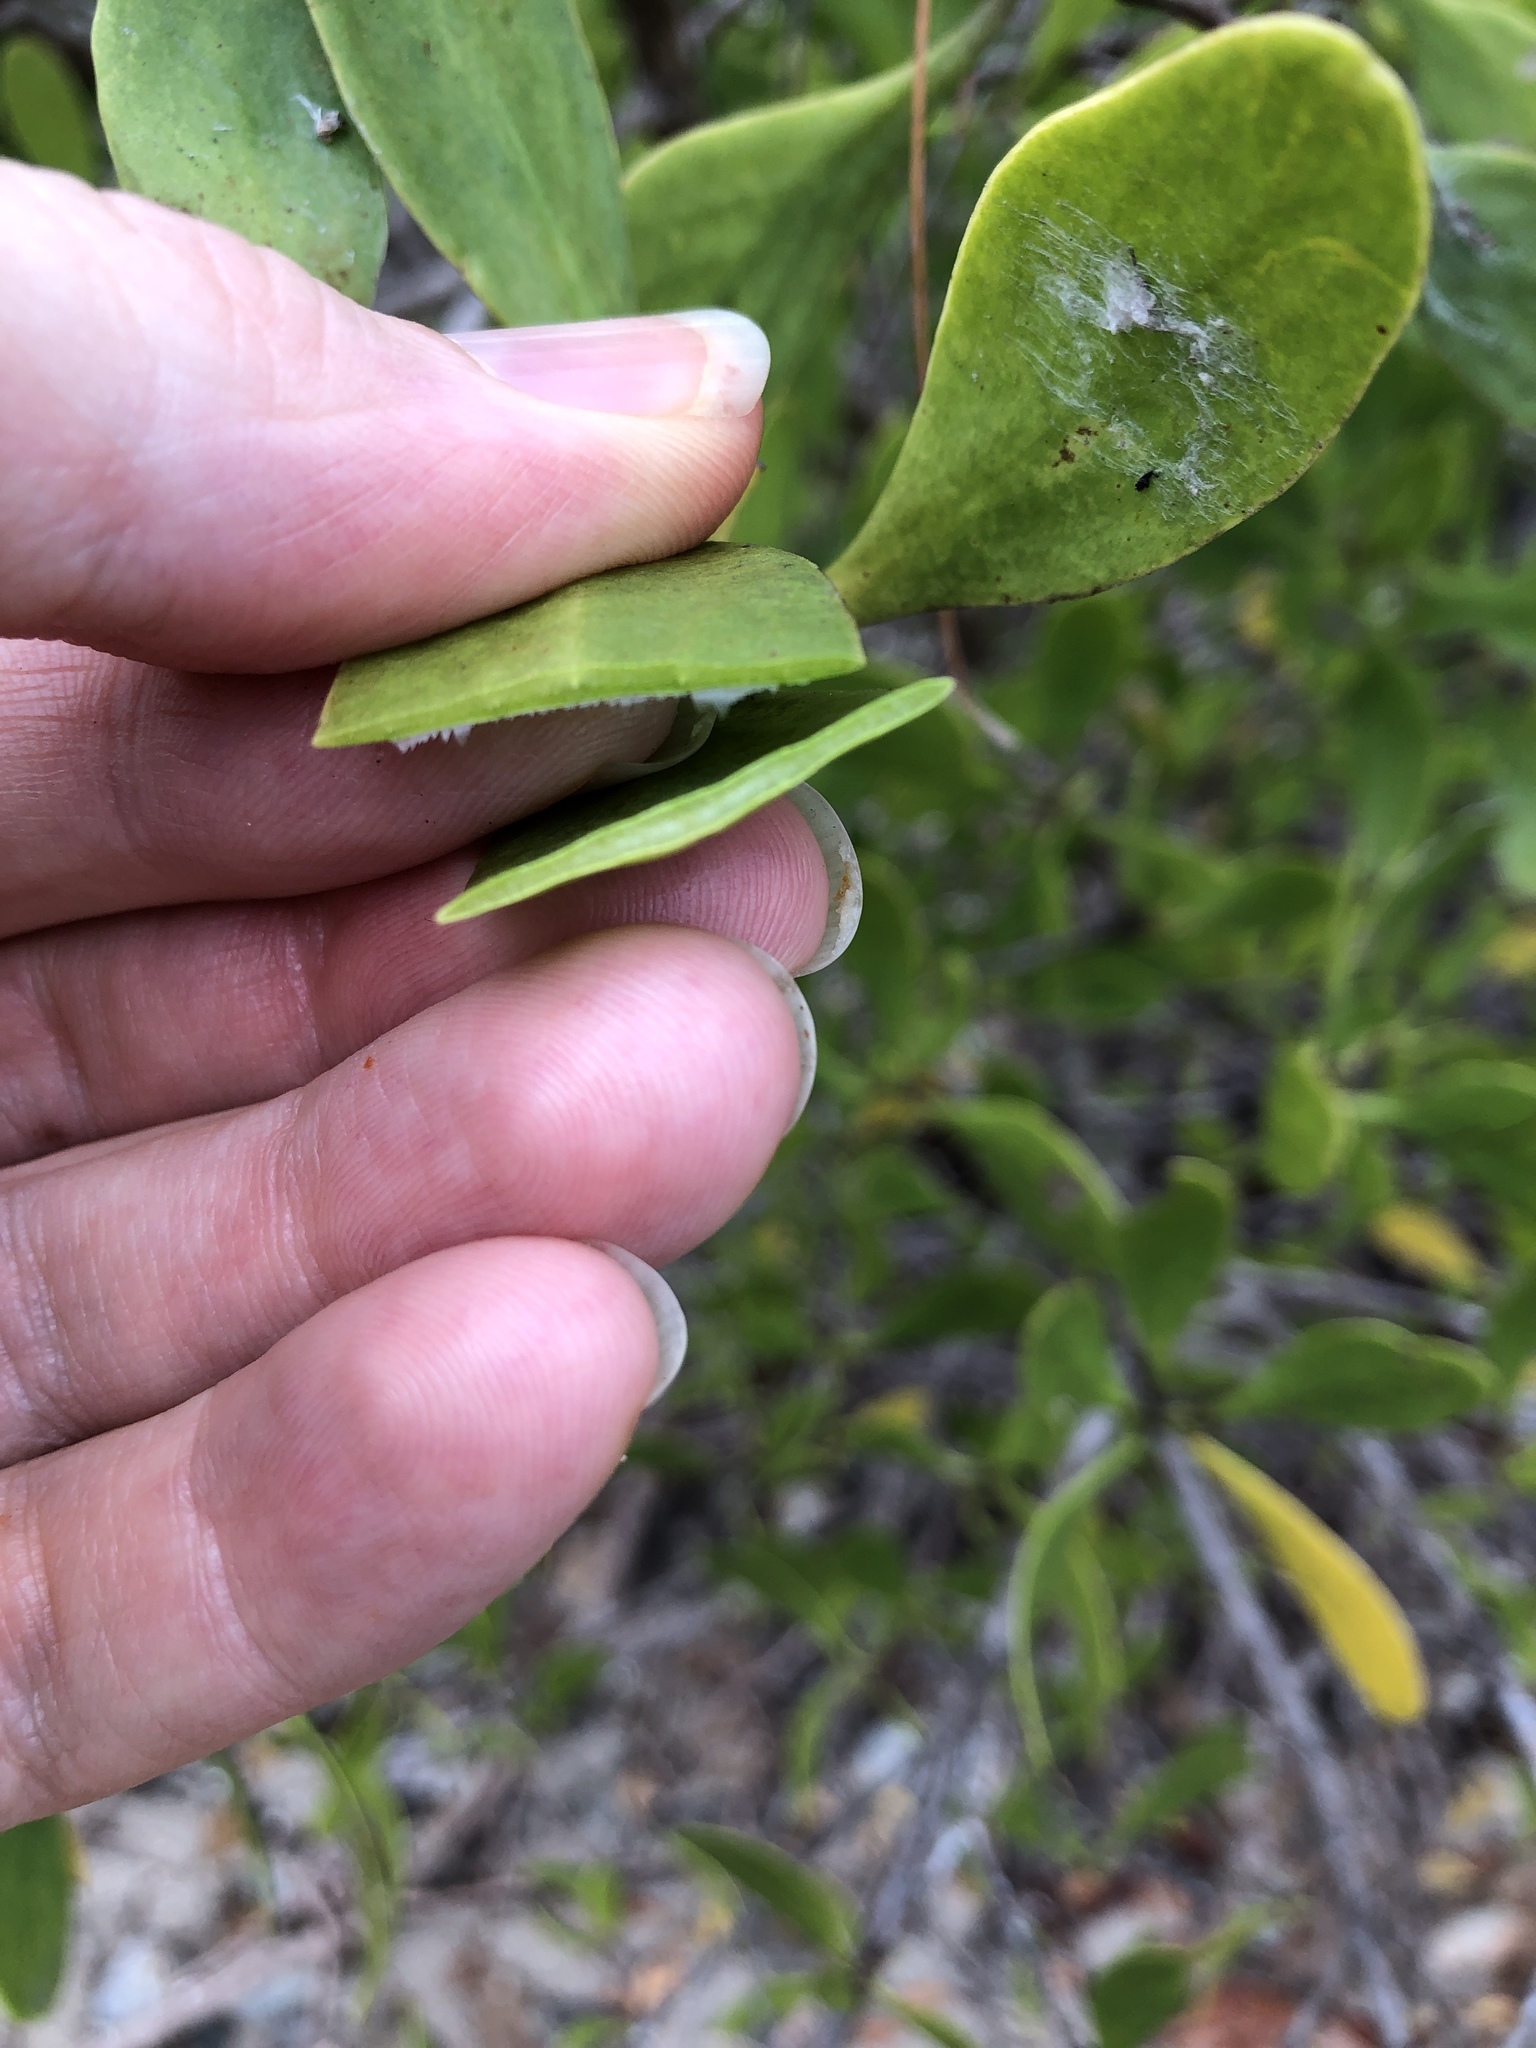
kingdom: Plantae
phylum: Tracheophyta
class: Magnoliopsida
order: Myrtales
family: Combretaceae
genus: Lumnitzera
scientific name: Lumnitzera racemosa
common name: White-flowered black mangrove
